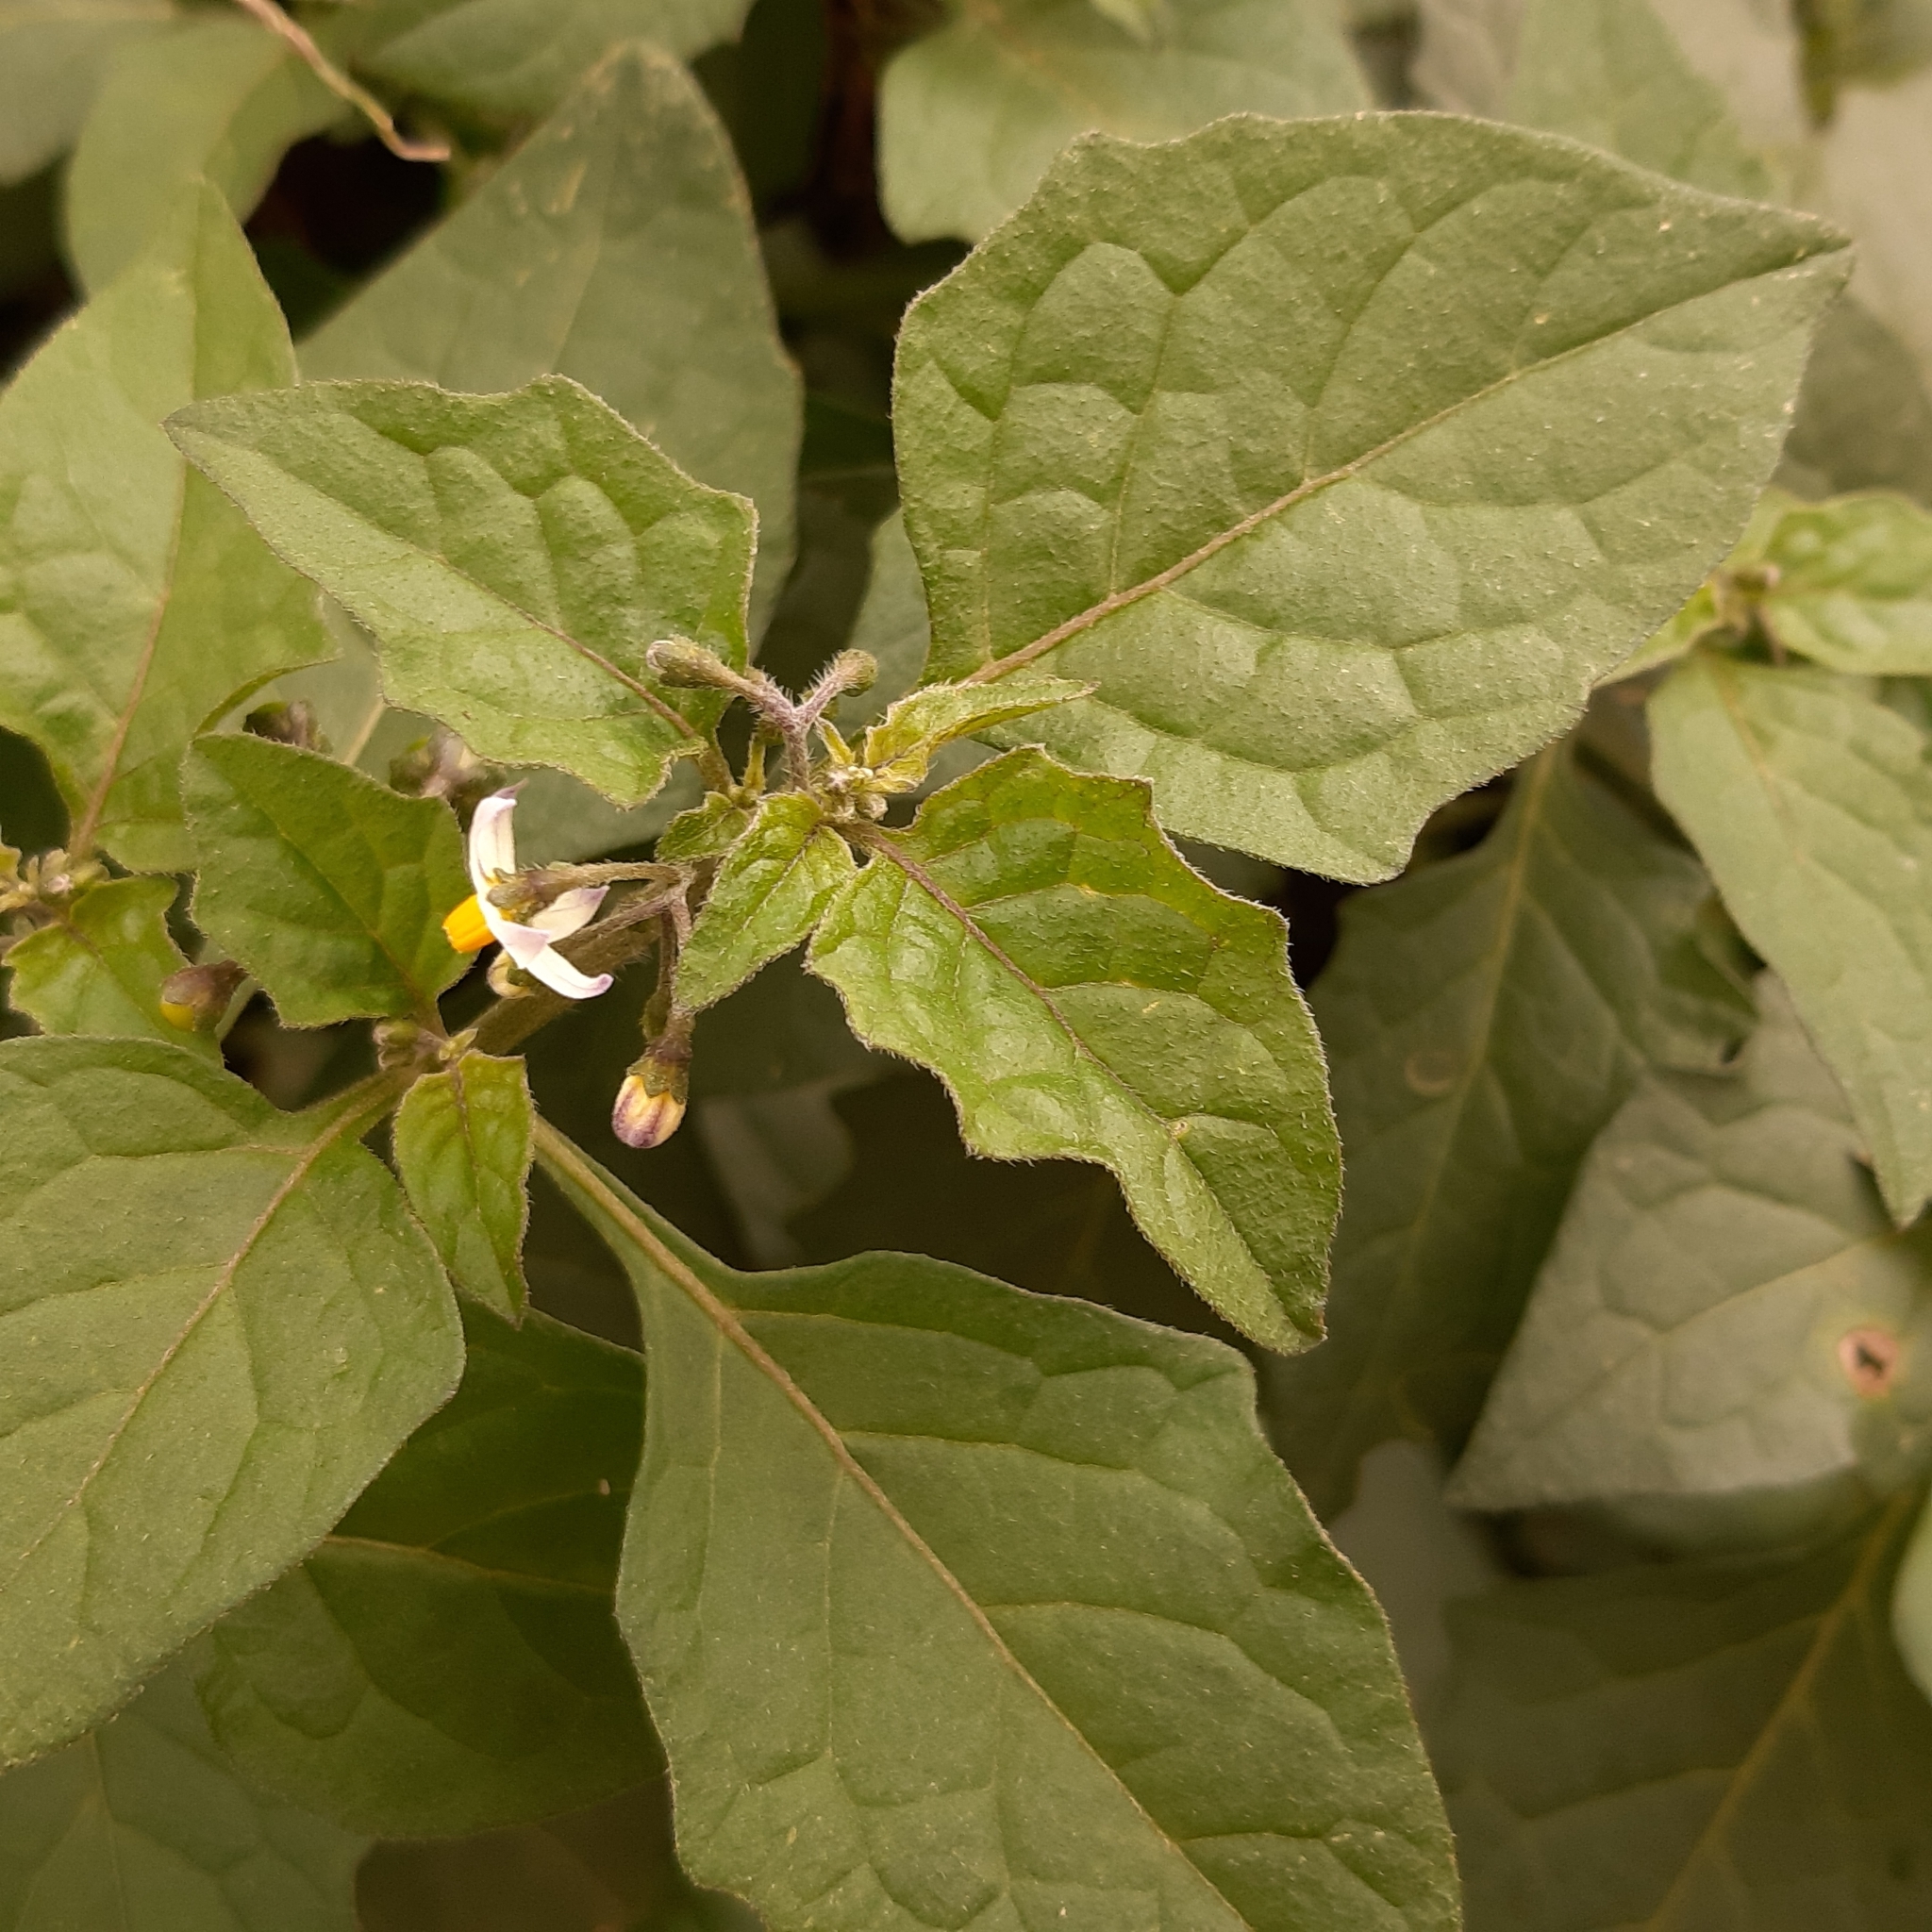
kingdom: Plantae
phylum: Tracheophyta
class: Magnoliopsida
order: Solanales
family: Solanaceae
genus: Solanum
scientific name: Solanum nigrum
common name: Black nightshade
